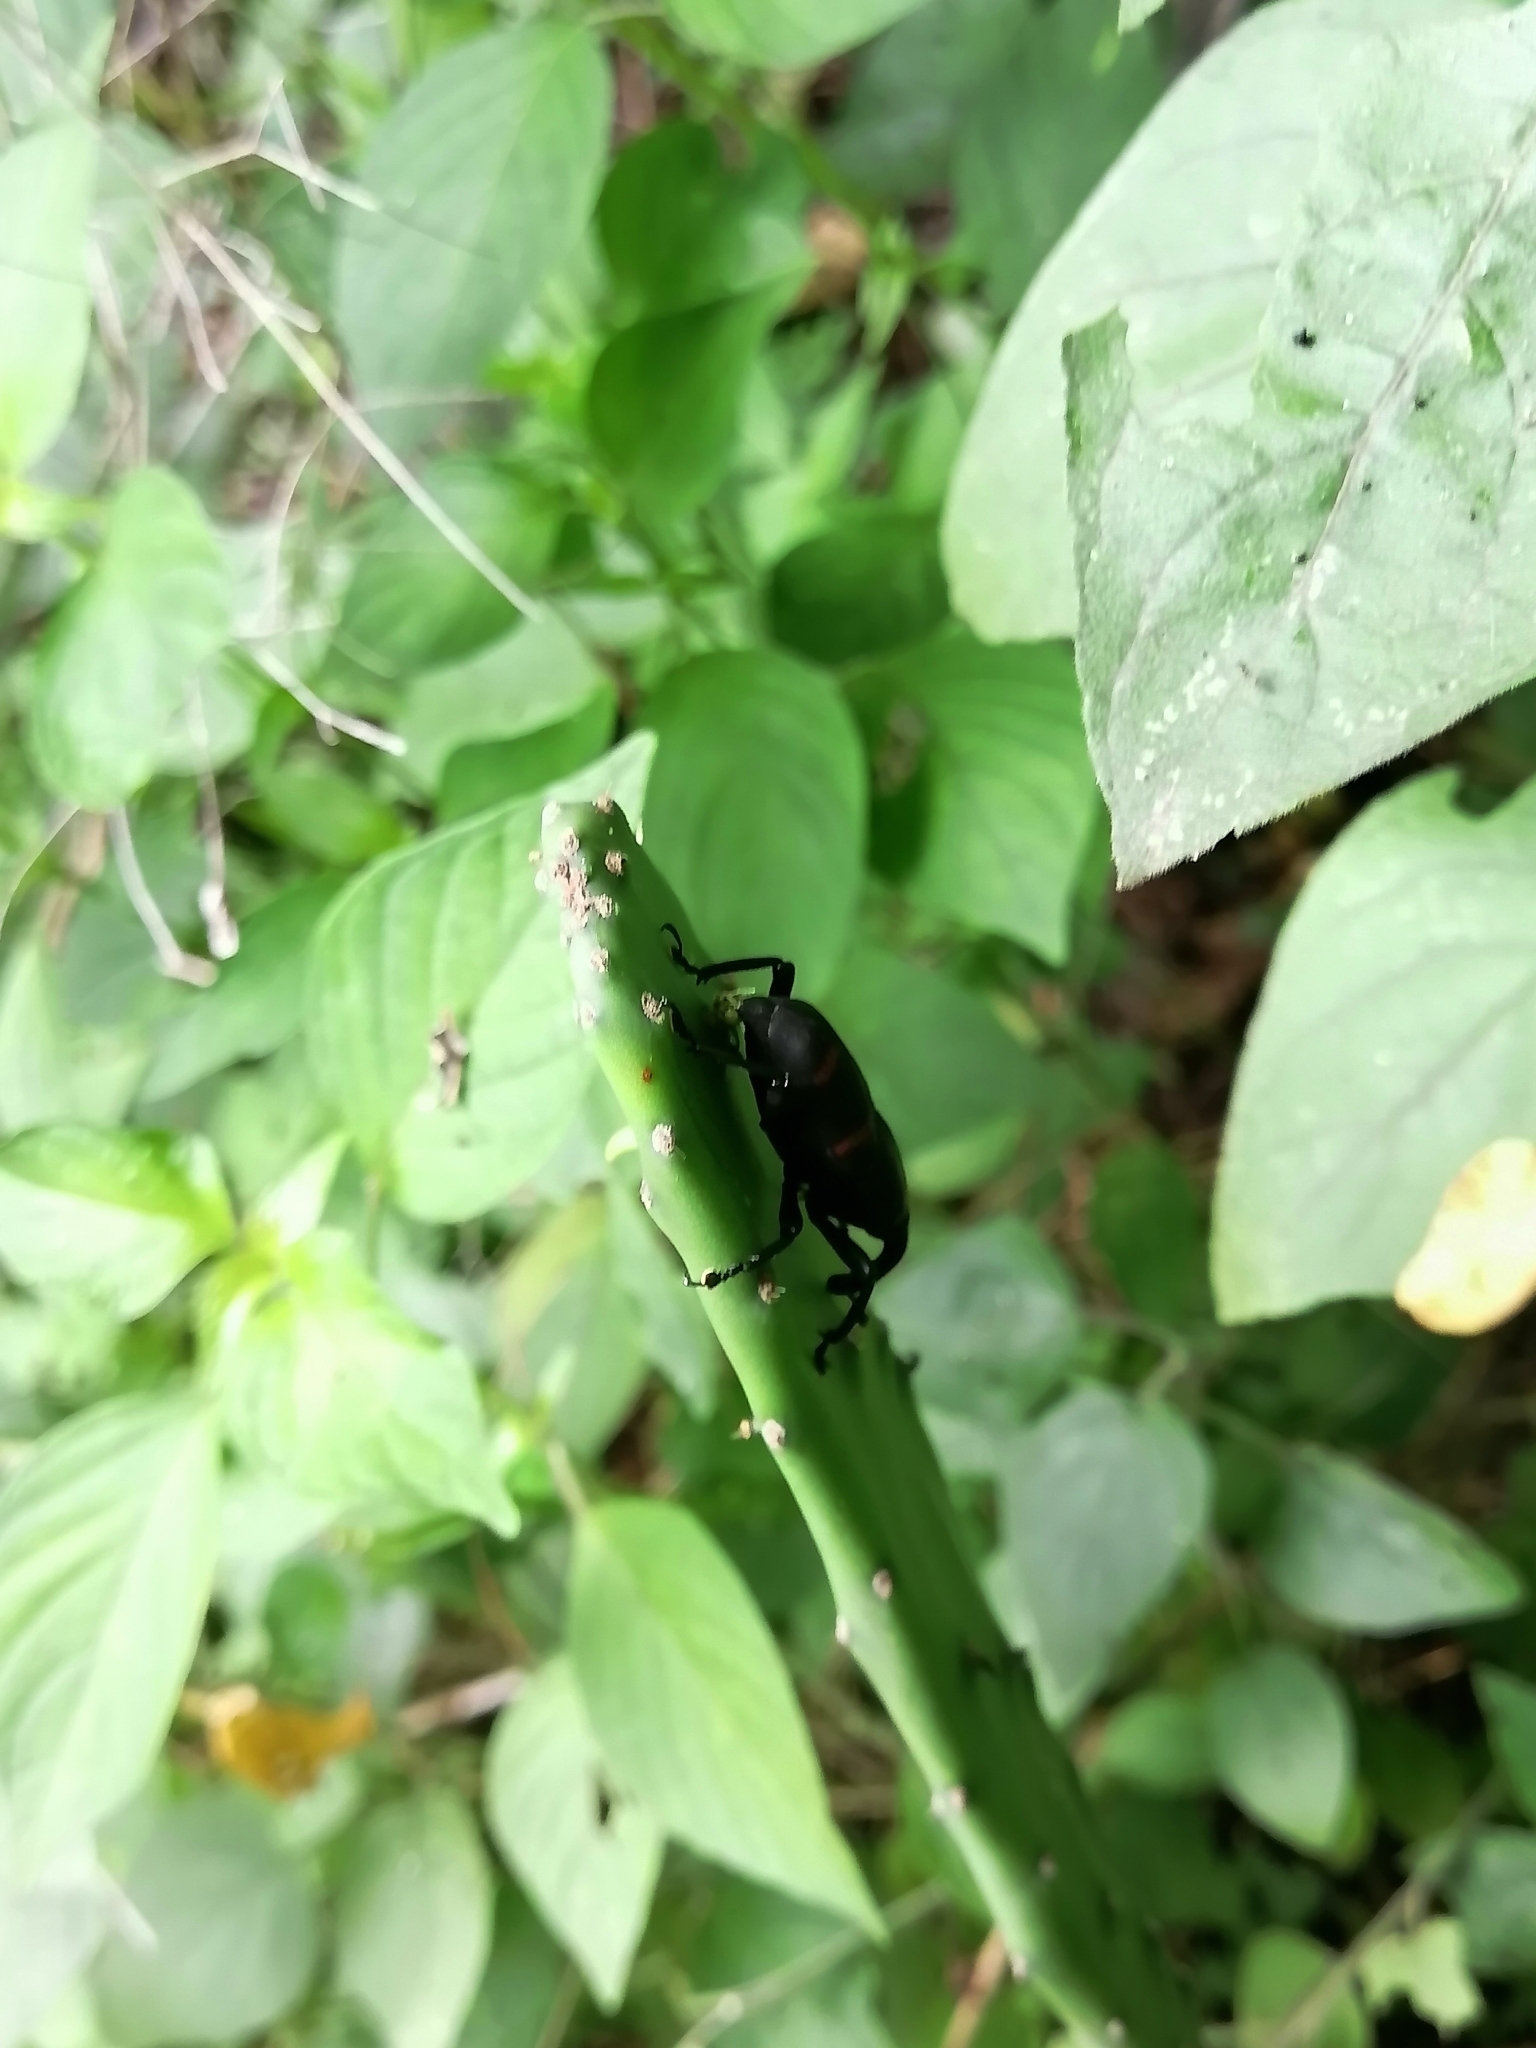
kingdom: Animalia
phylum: Arthropoda
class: Insecta
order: Coleoptera
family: Dryophthoridae
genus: Cactophagus
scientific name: Cactophagus spinolae
